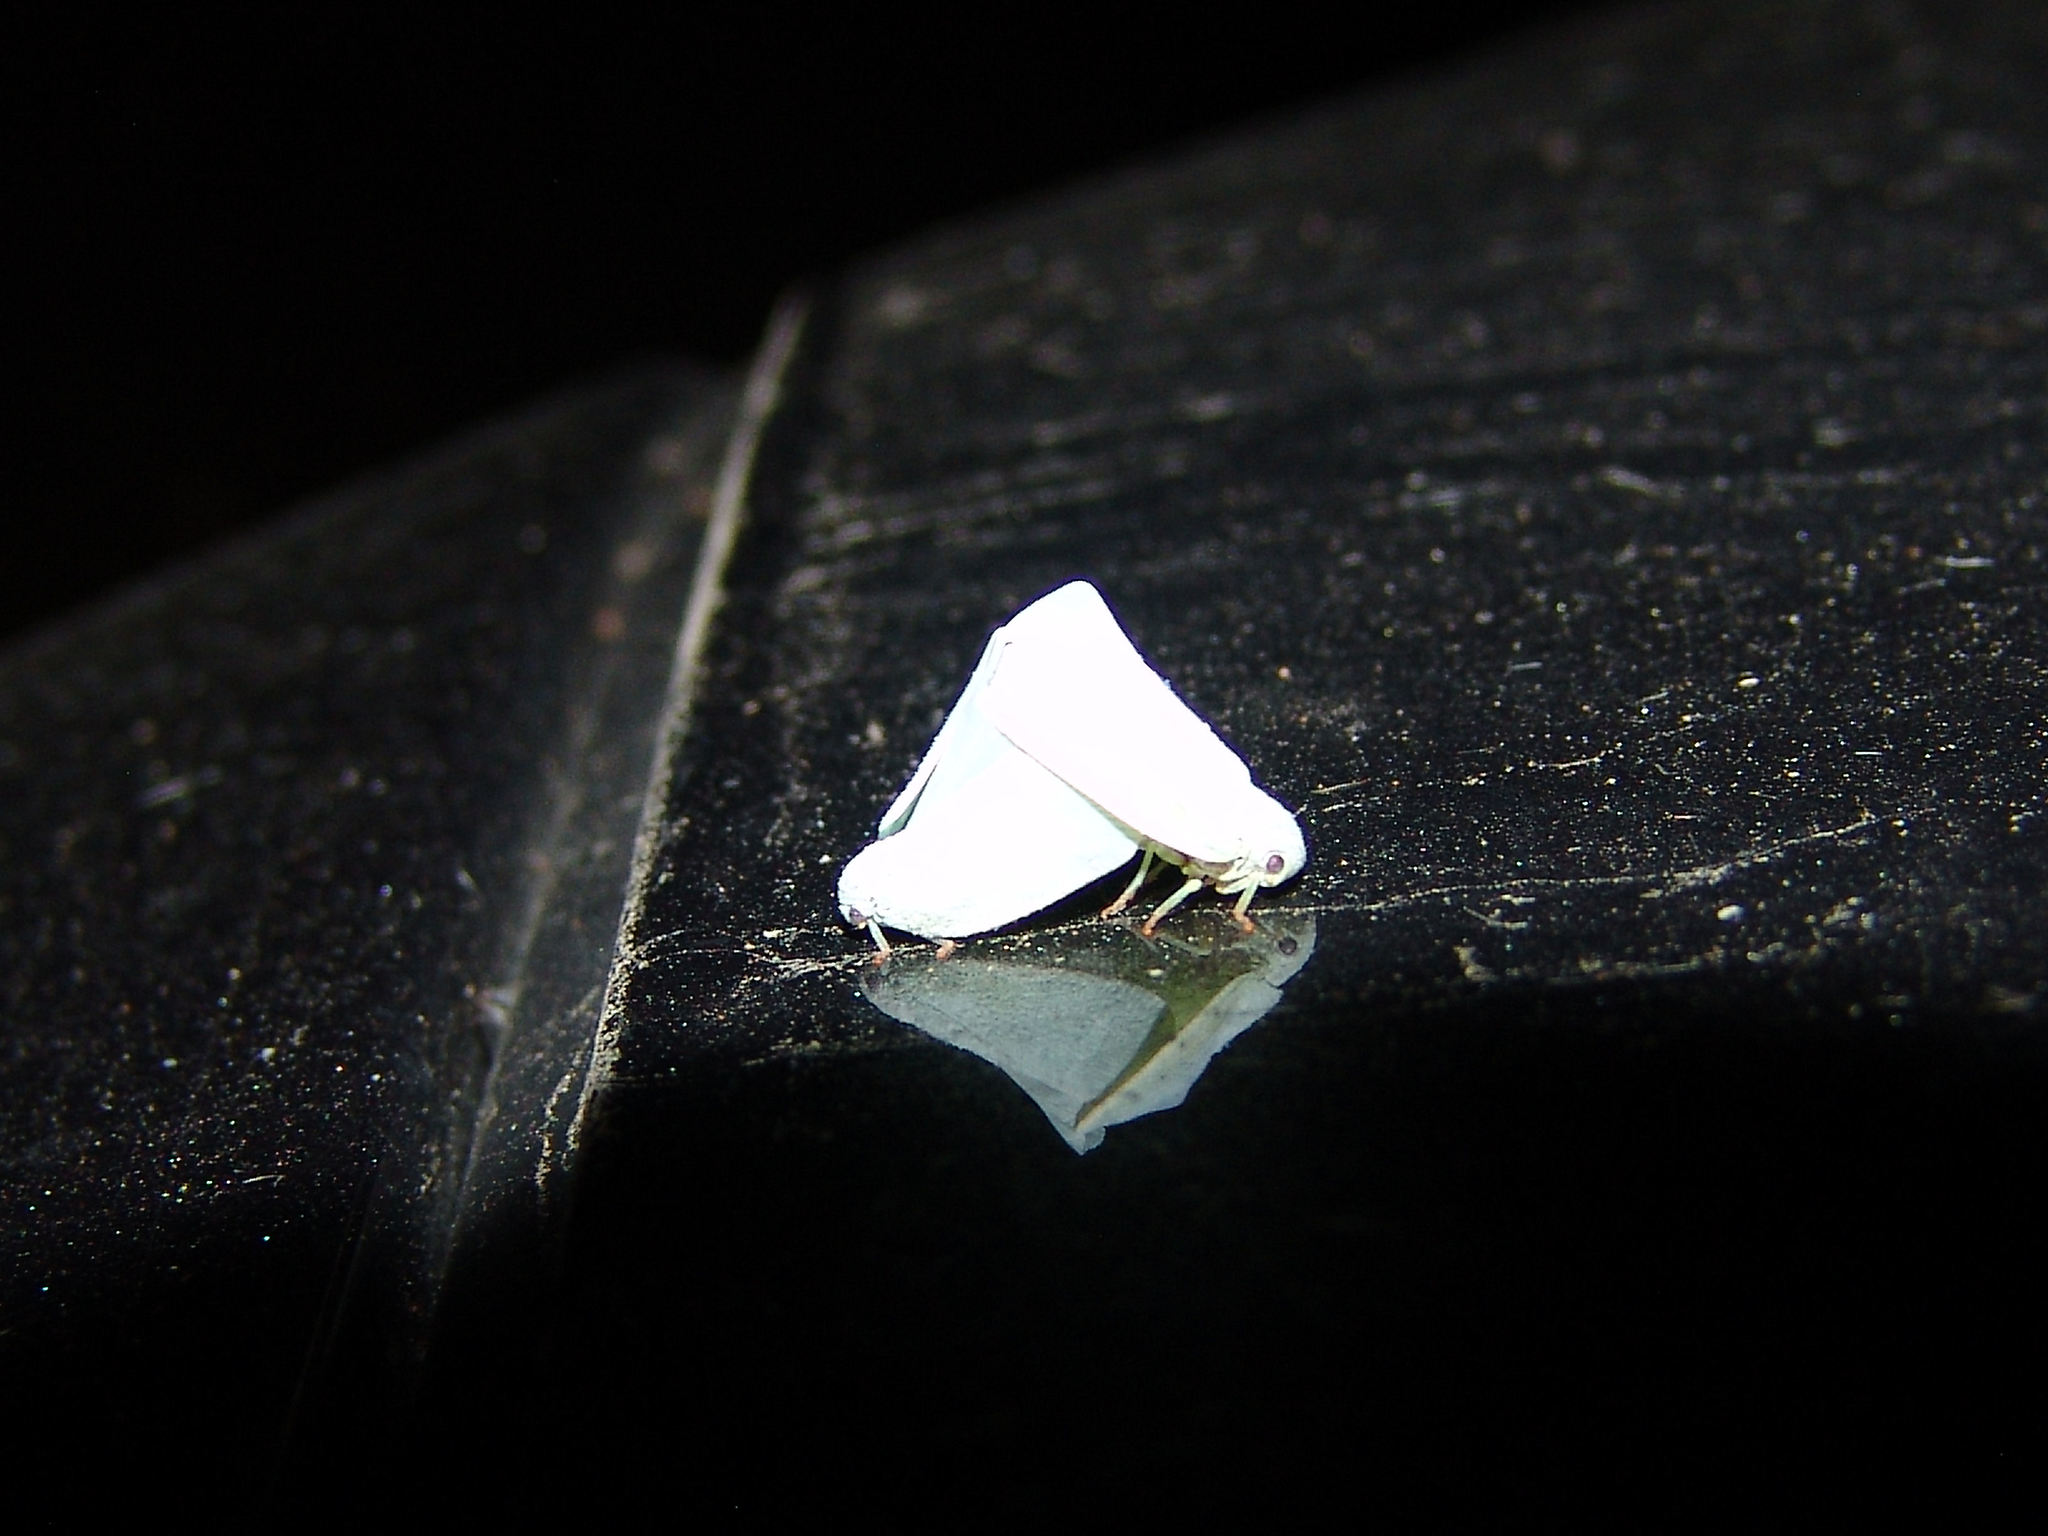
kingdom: Animalia
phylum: Arthropoda
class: Insecta
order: Hemiptera
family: Flatidae
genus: Flatormenis
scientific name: Flatormenis proxima
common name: Northern flatid planthopper
